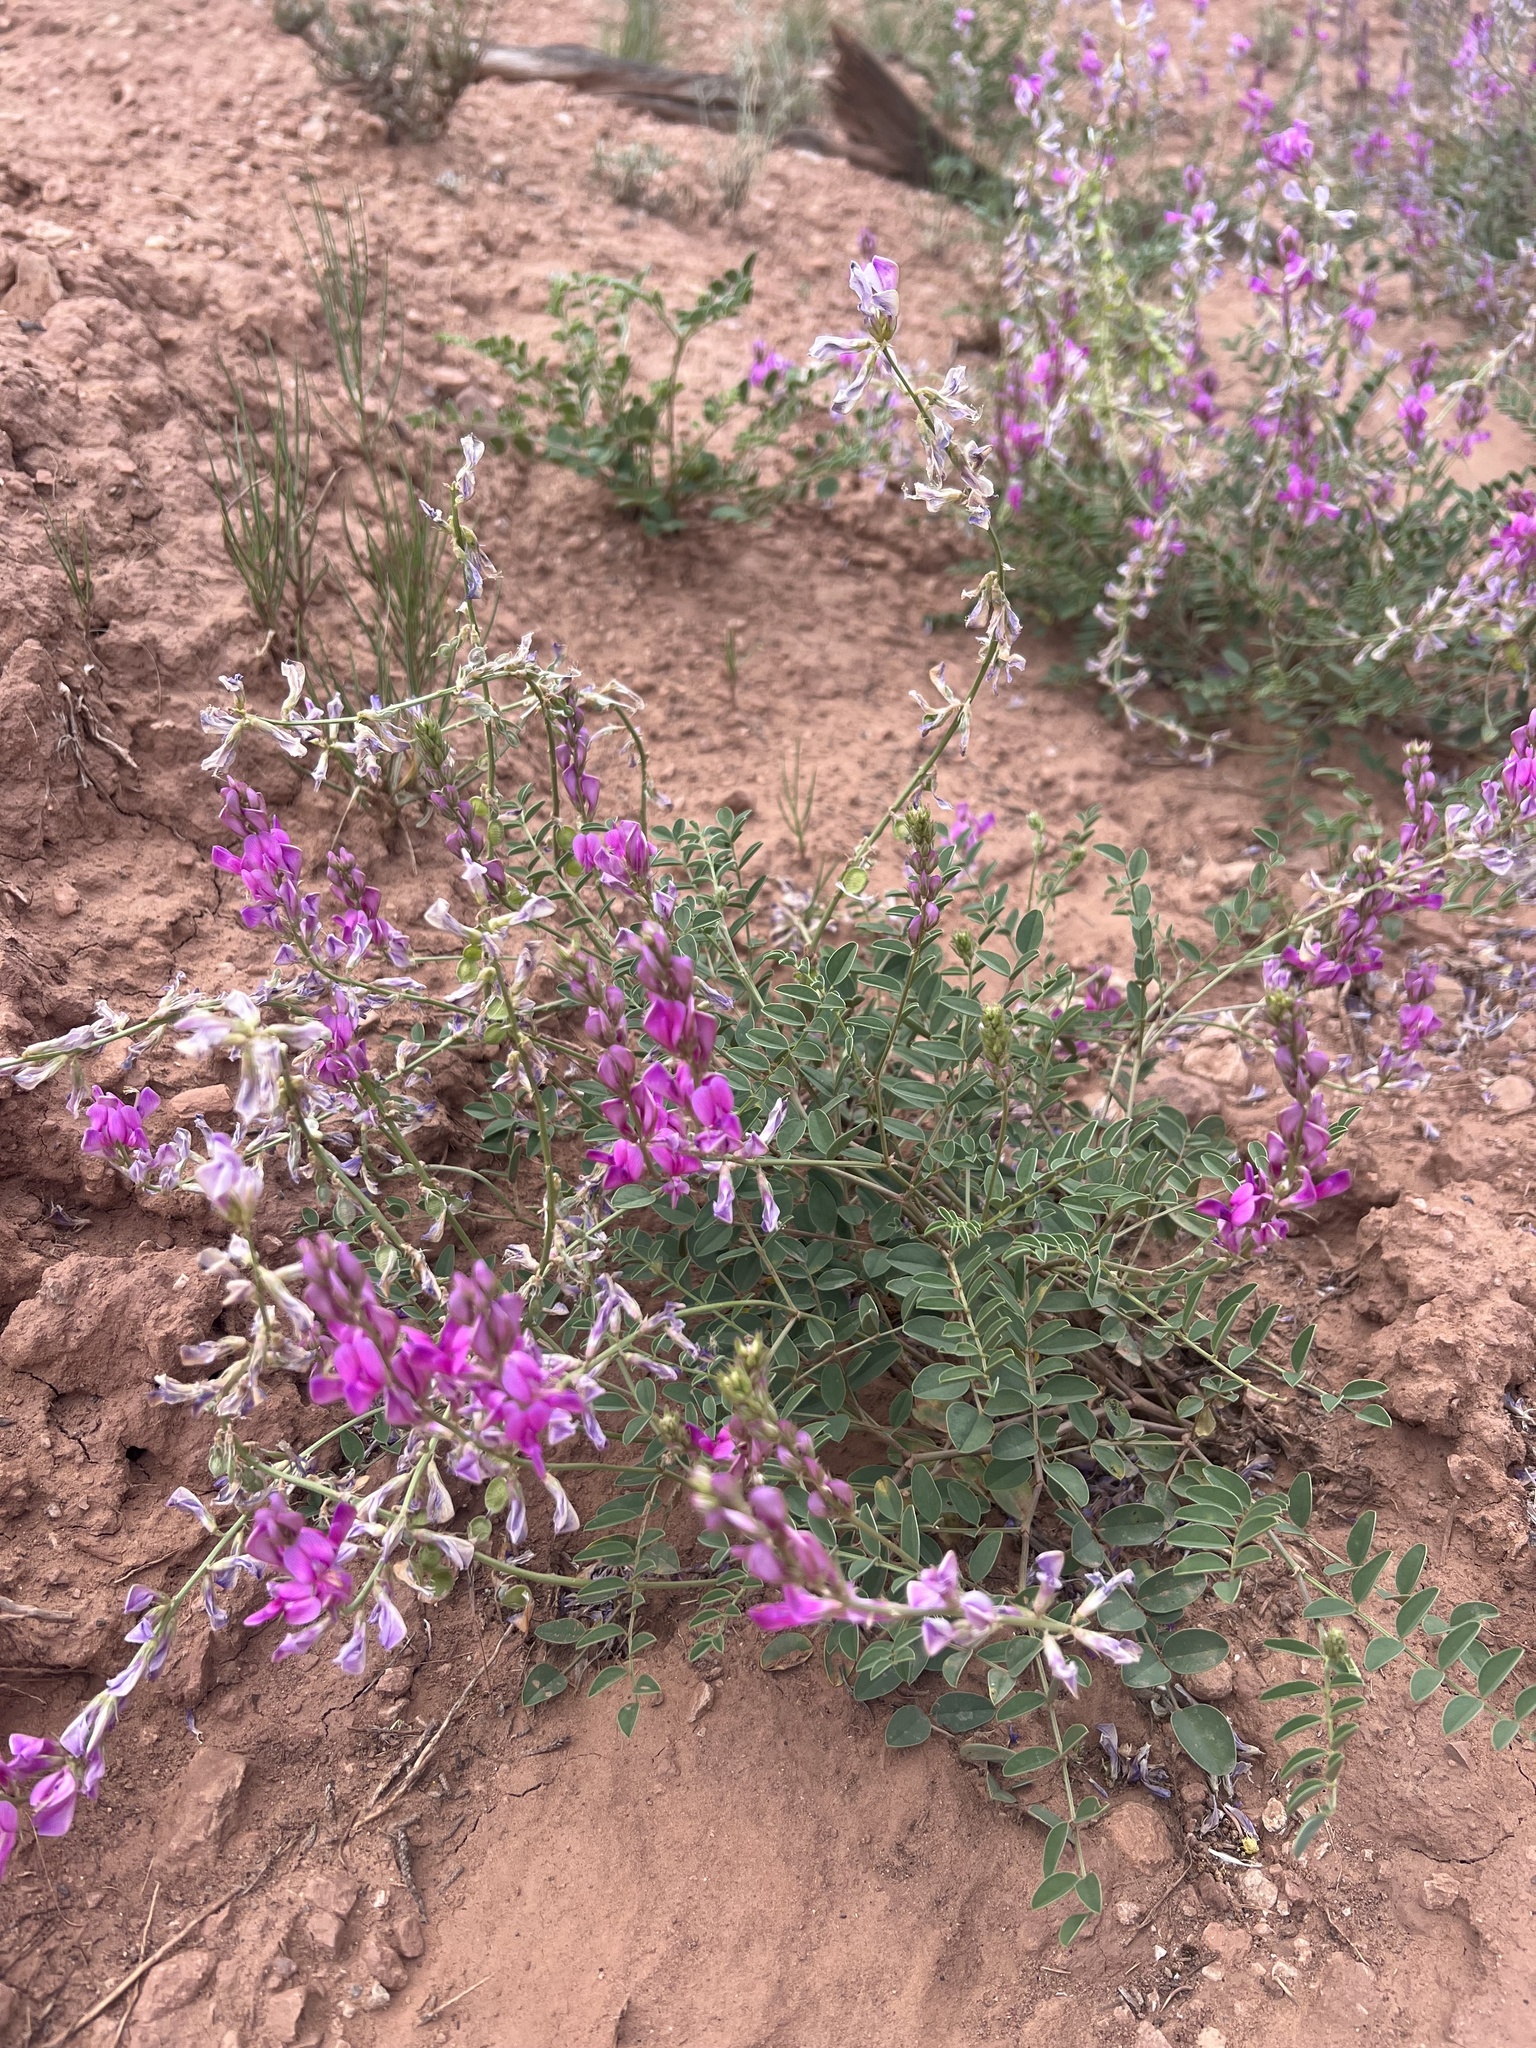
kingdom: Plantae
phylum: Tracheophyta
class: Magnoliopsida
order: Fabales
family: Fabaceae
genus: Hedysarum
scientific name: Hedysarum boreale
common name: Northern sweet-vetch
